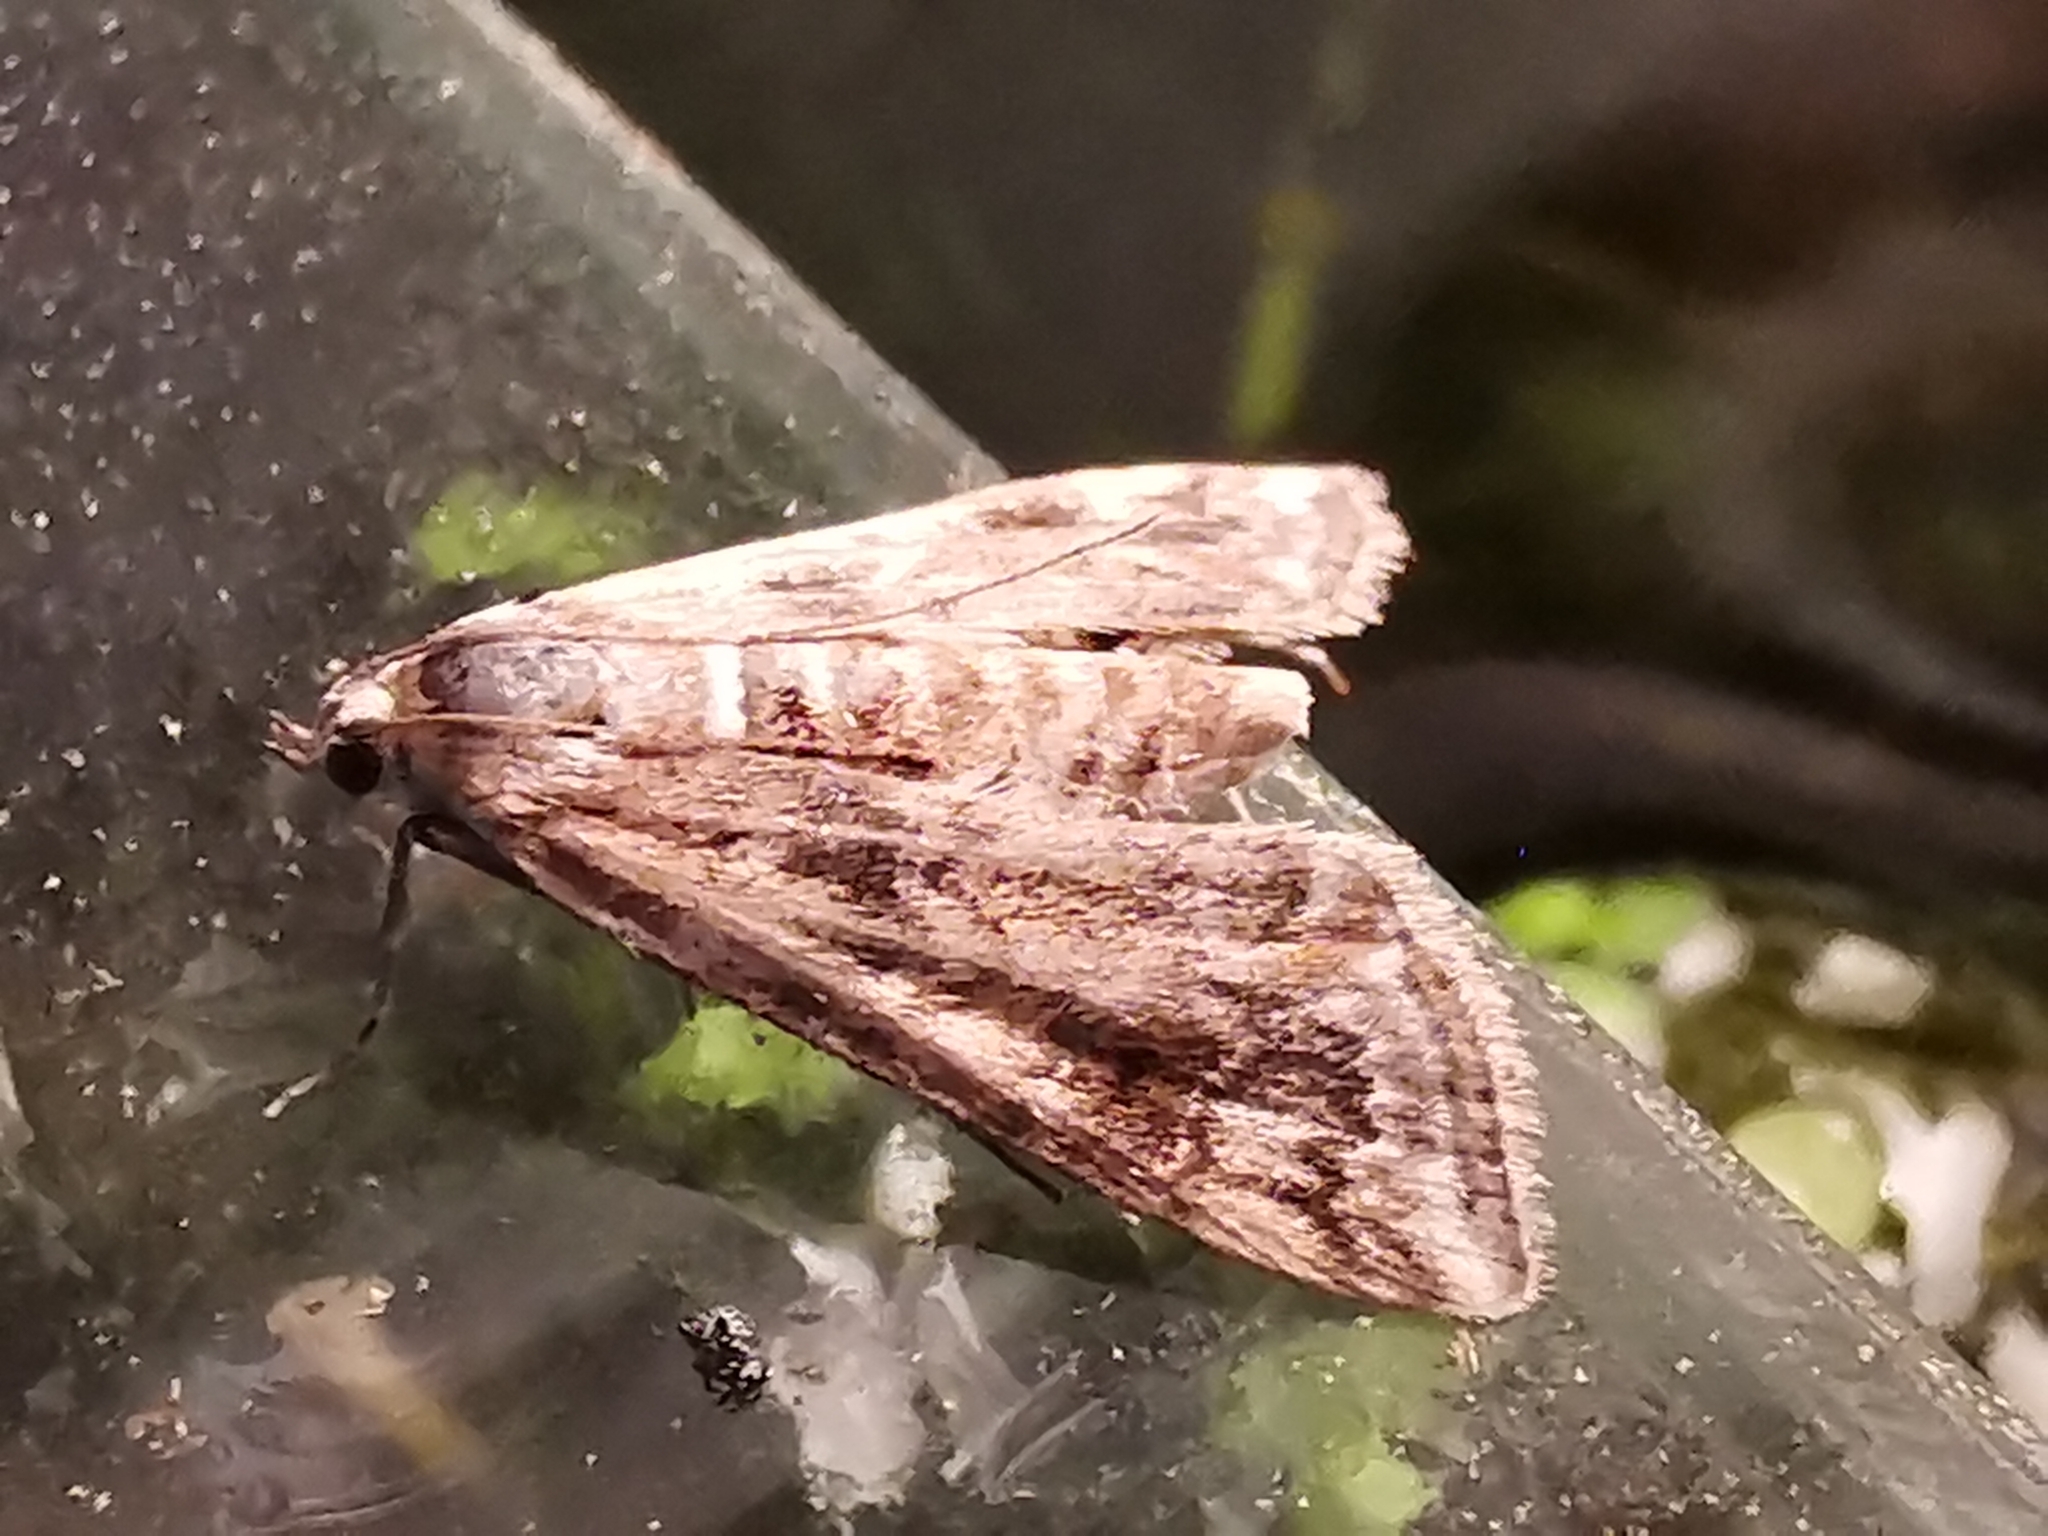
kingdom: Animalia
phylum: Arthropoda
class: Insecta
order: Lepidoptera
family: Crambidae
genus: Cataclysta
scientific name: Cataclysta lemnata
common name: Small china-mark
